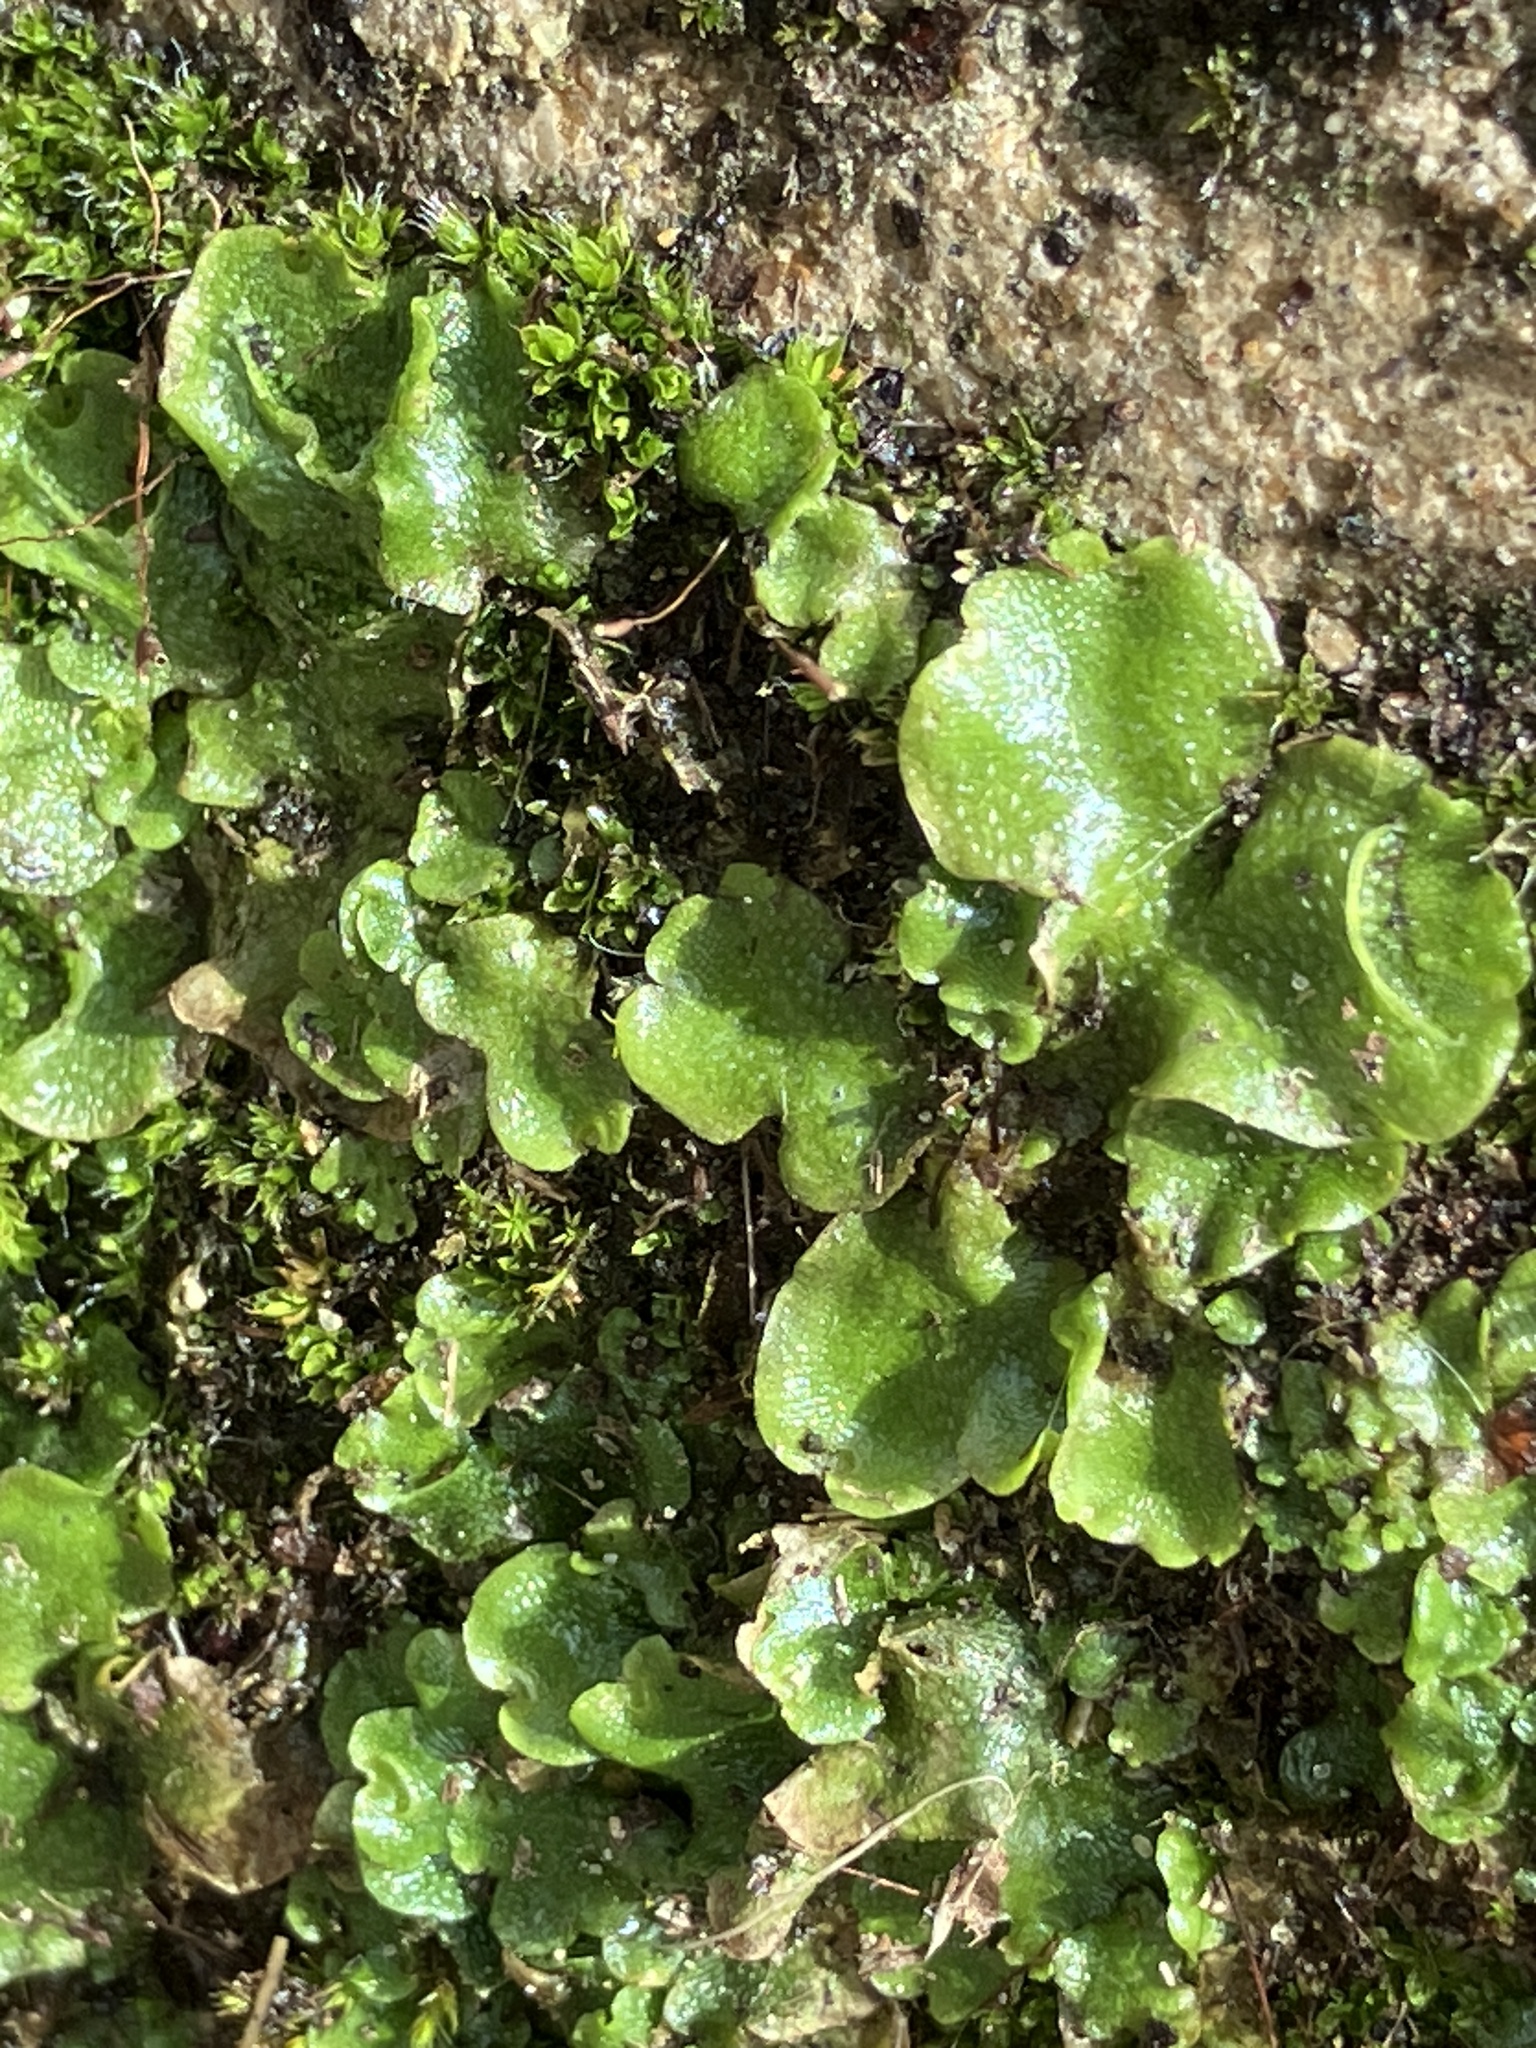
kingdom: Plantae
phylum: Marchantiophyta
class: Marchantiopsida
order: Lunulariales
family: Lunulariaceae
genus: Lunularia
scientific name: Lunularia cruciata
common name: Crescent-cup liverwort
